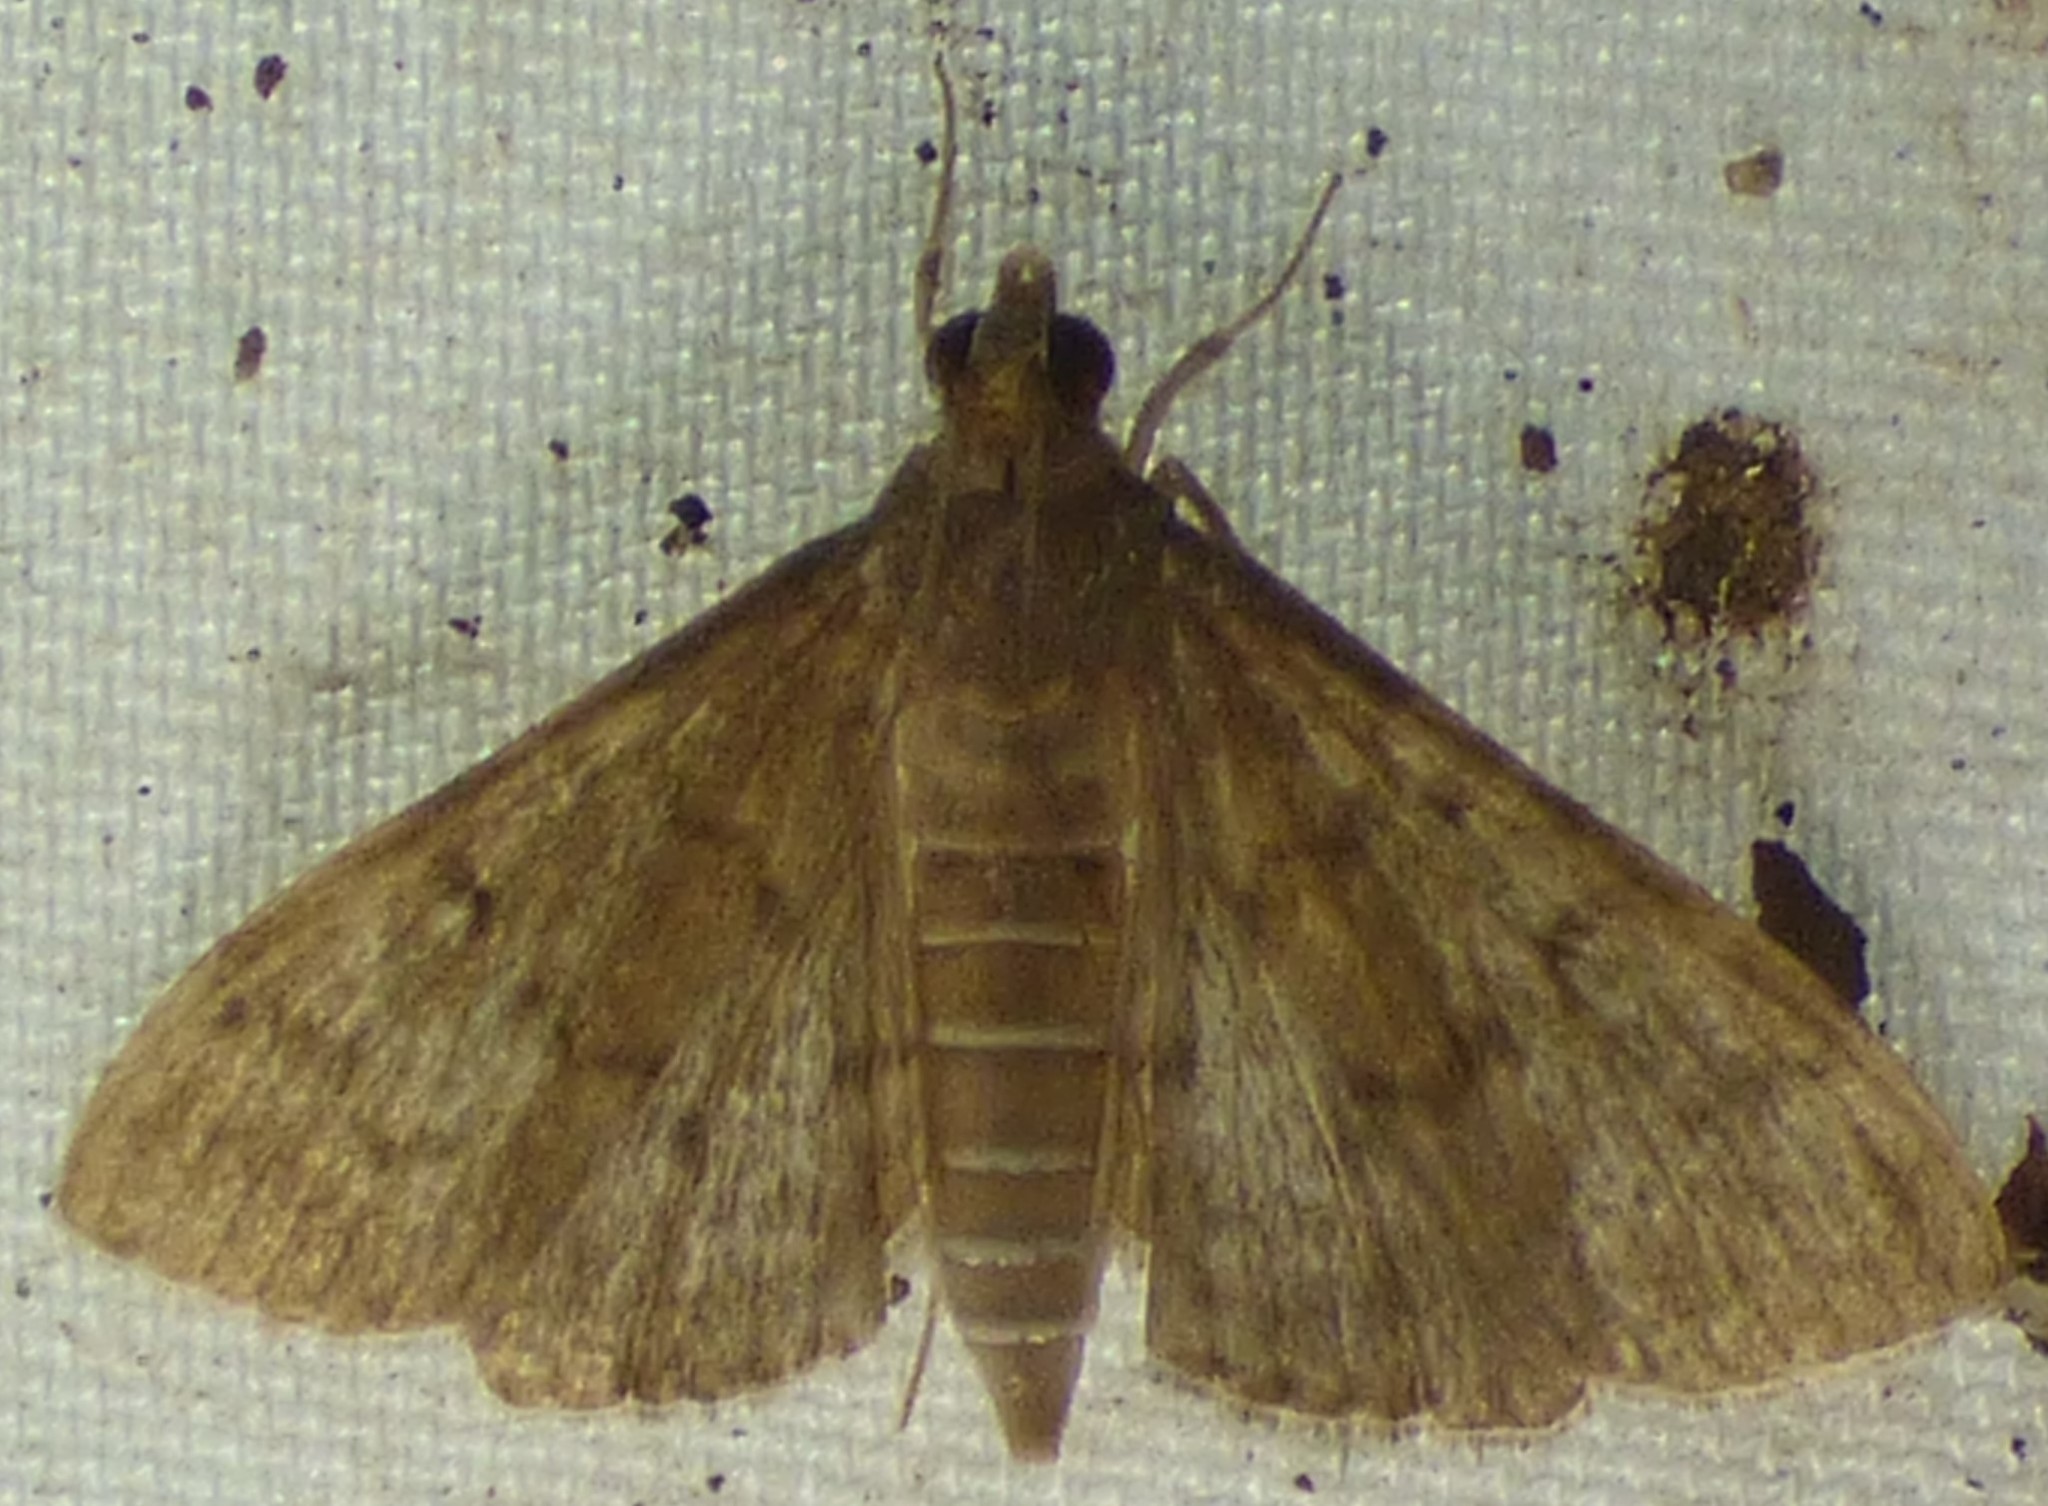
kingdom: Animalia
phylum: Arthropoda
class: Insecta
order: Lepidoptera
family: Crambidae
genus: Herpetogramma
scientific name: Herpetogramma phaeopteralis
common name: Dusky herpetogramma moth
